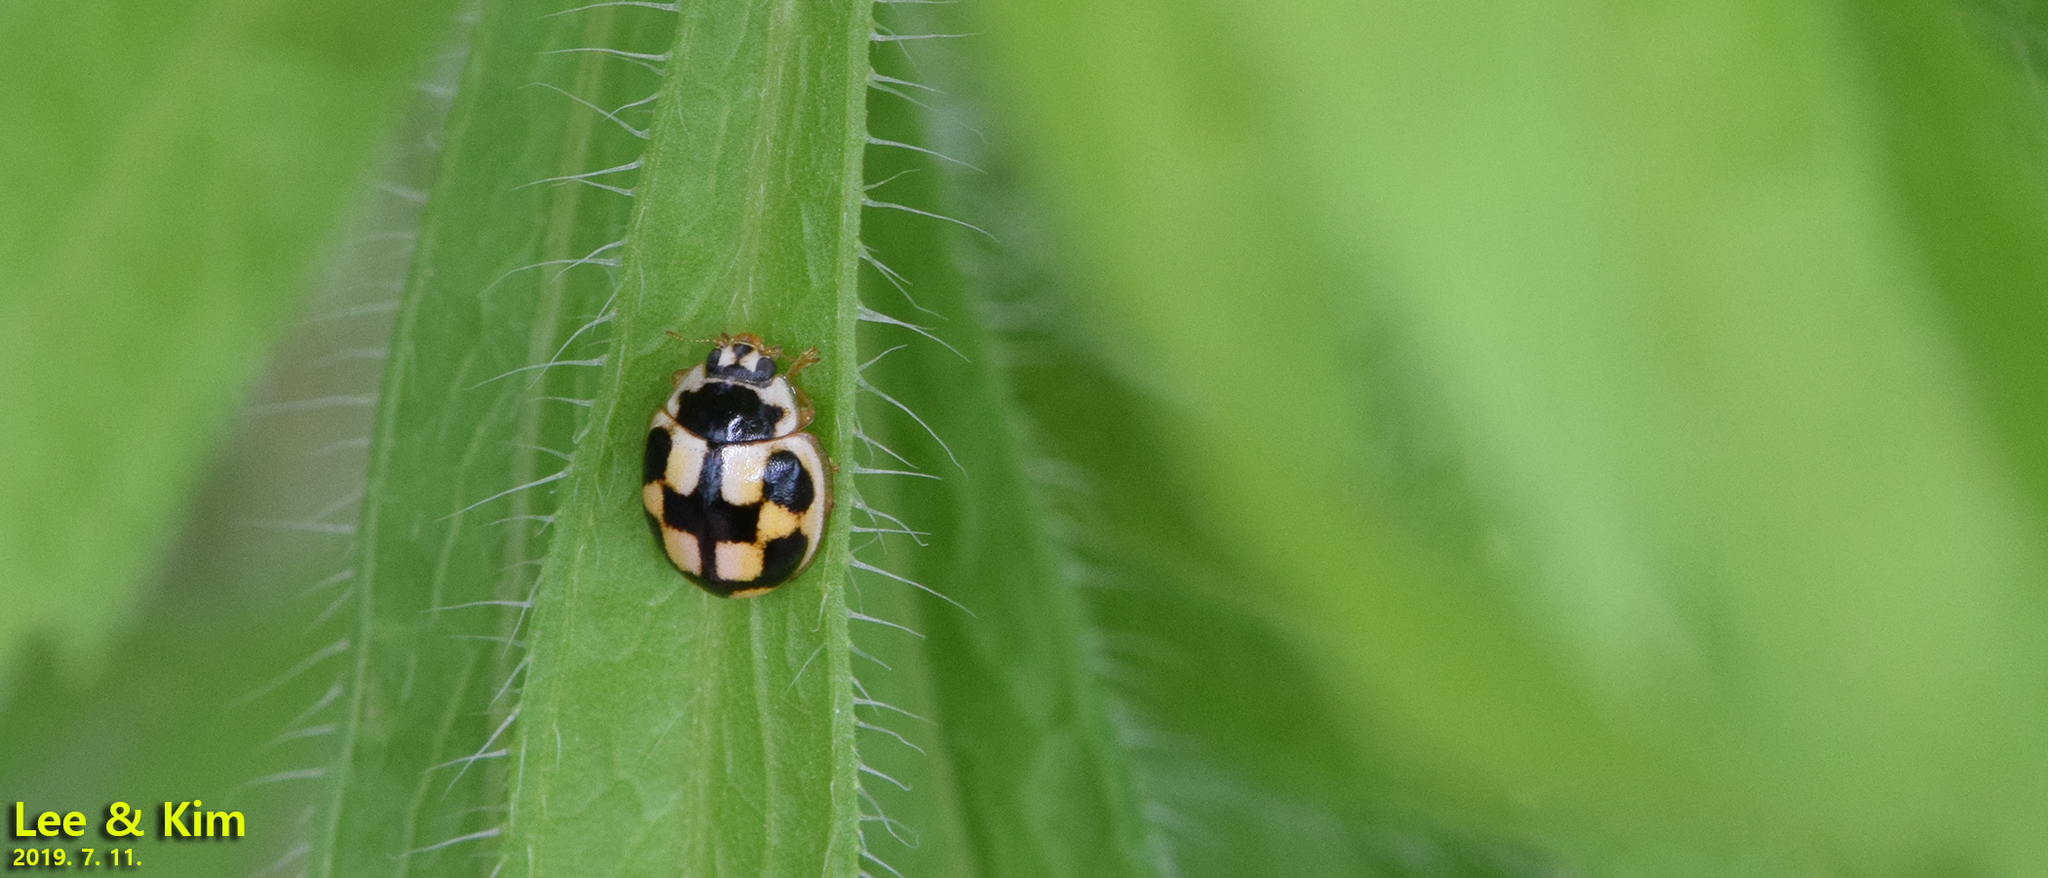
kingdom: Animalia
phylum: Arthropoda
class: Insecta
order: Coleoptera
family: Coccinellidae
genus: Propylea
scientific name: Propylea japonica
